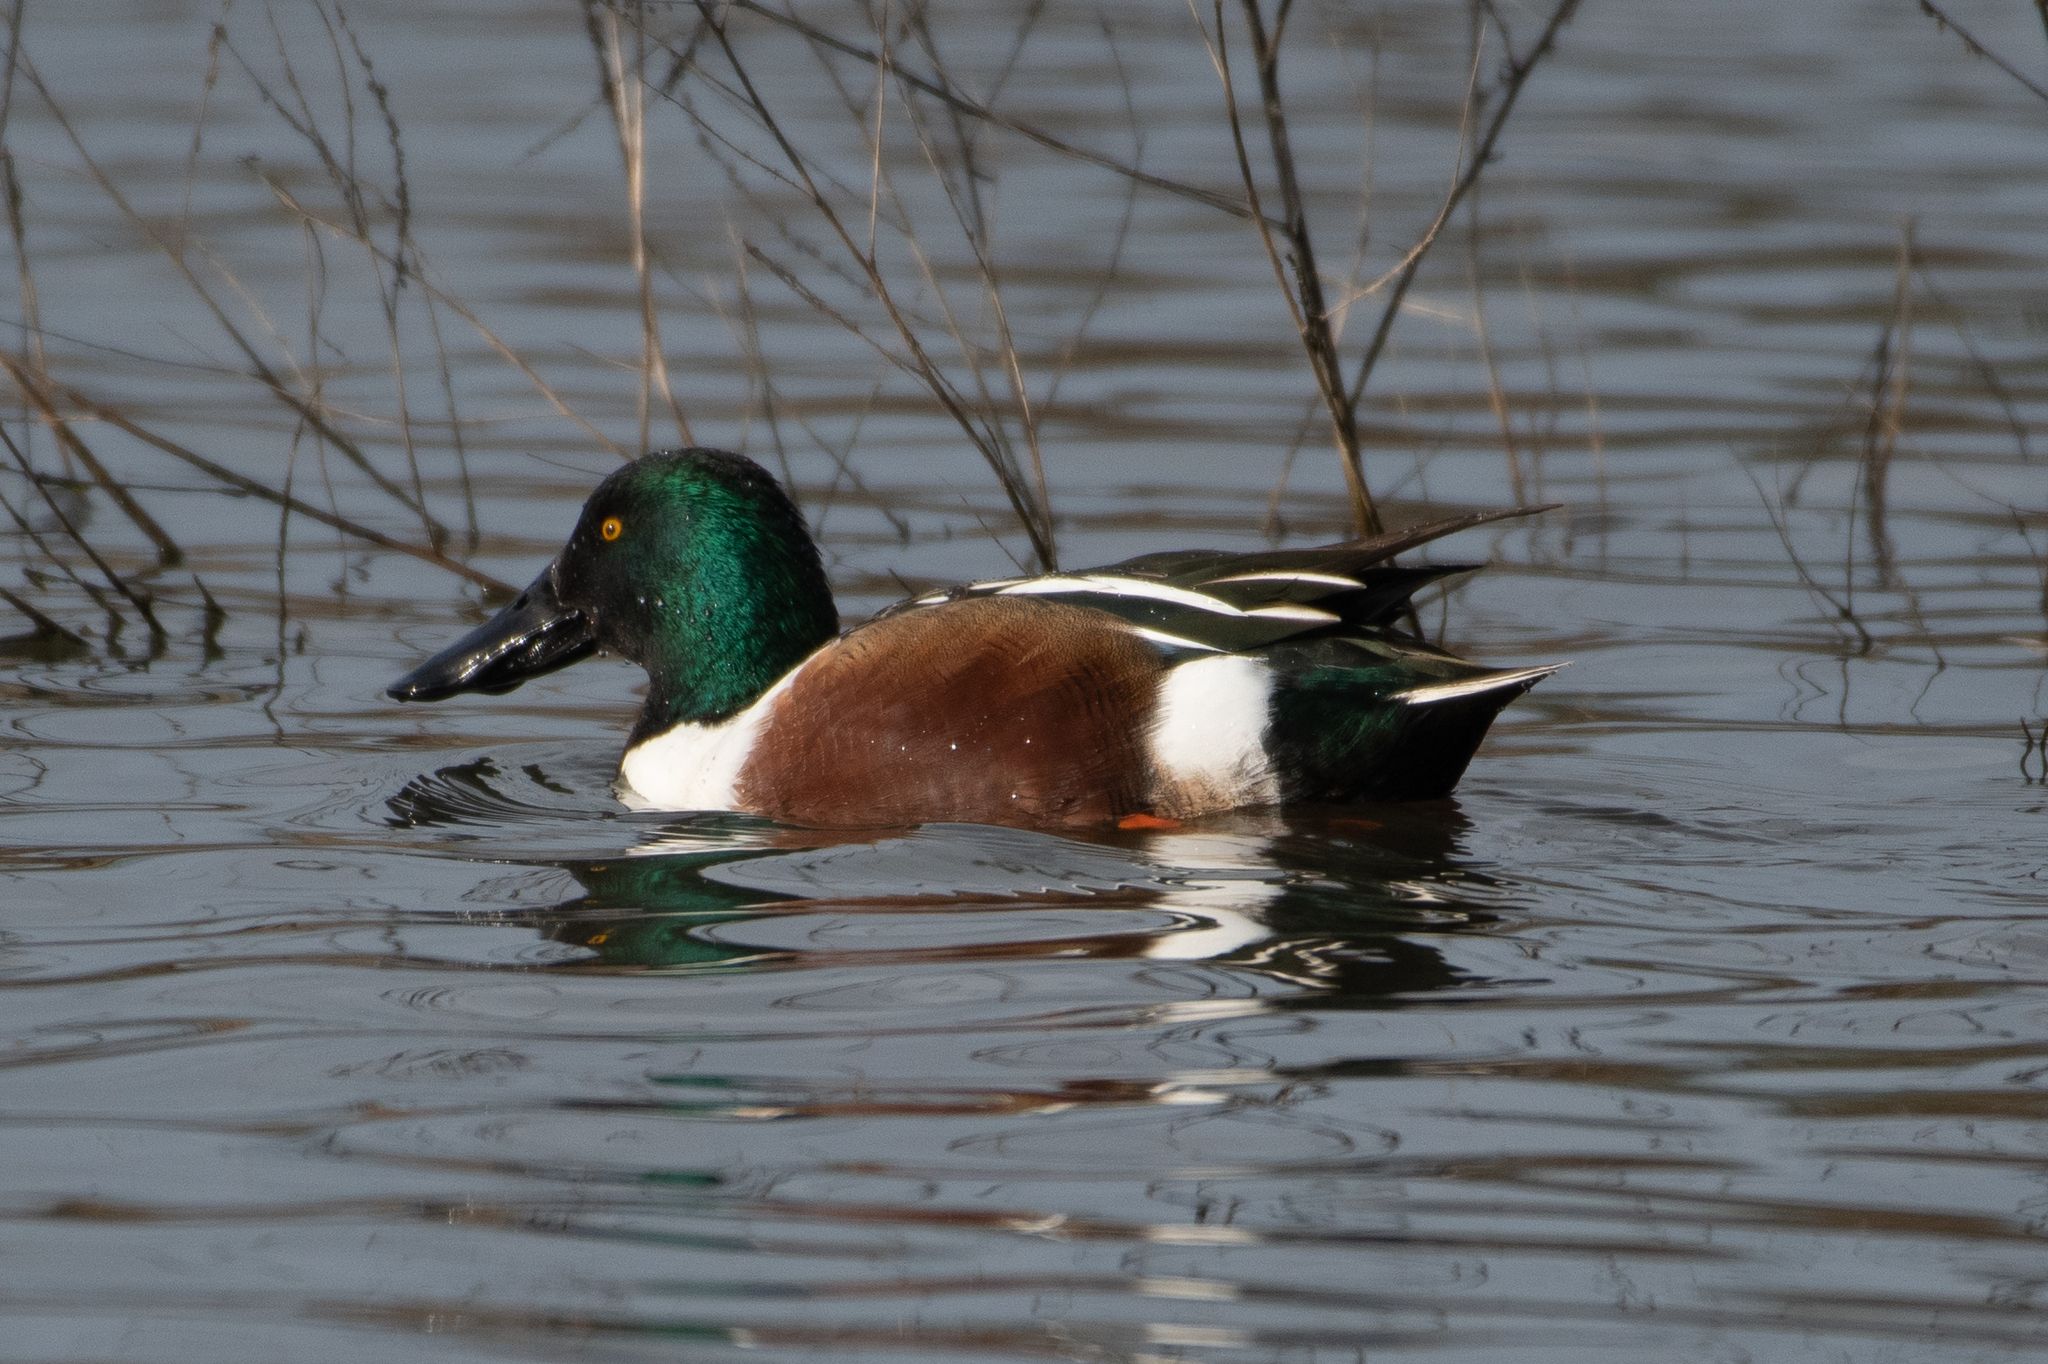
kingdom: Animalia
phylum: Chordata
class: Aves
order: Anseriformes
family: Anatidae
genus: Spatula
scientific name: Spatula clypeata
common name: Northern shoveler
